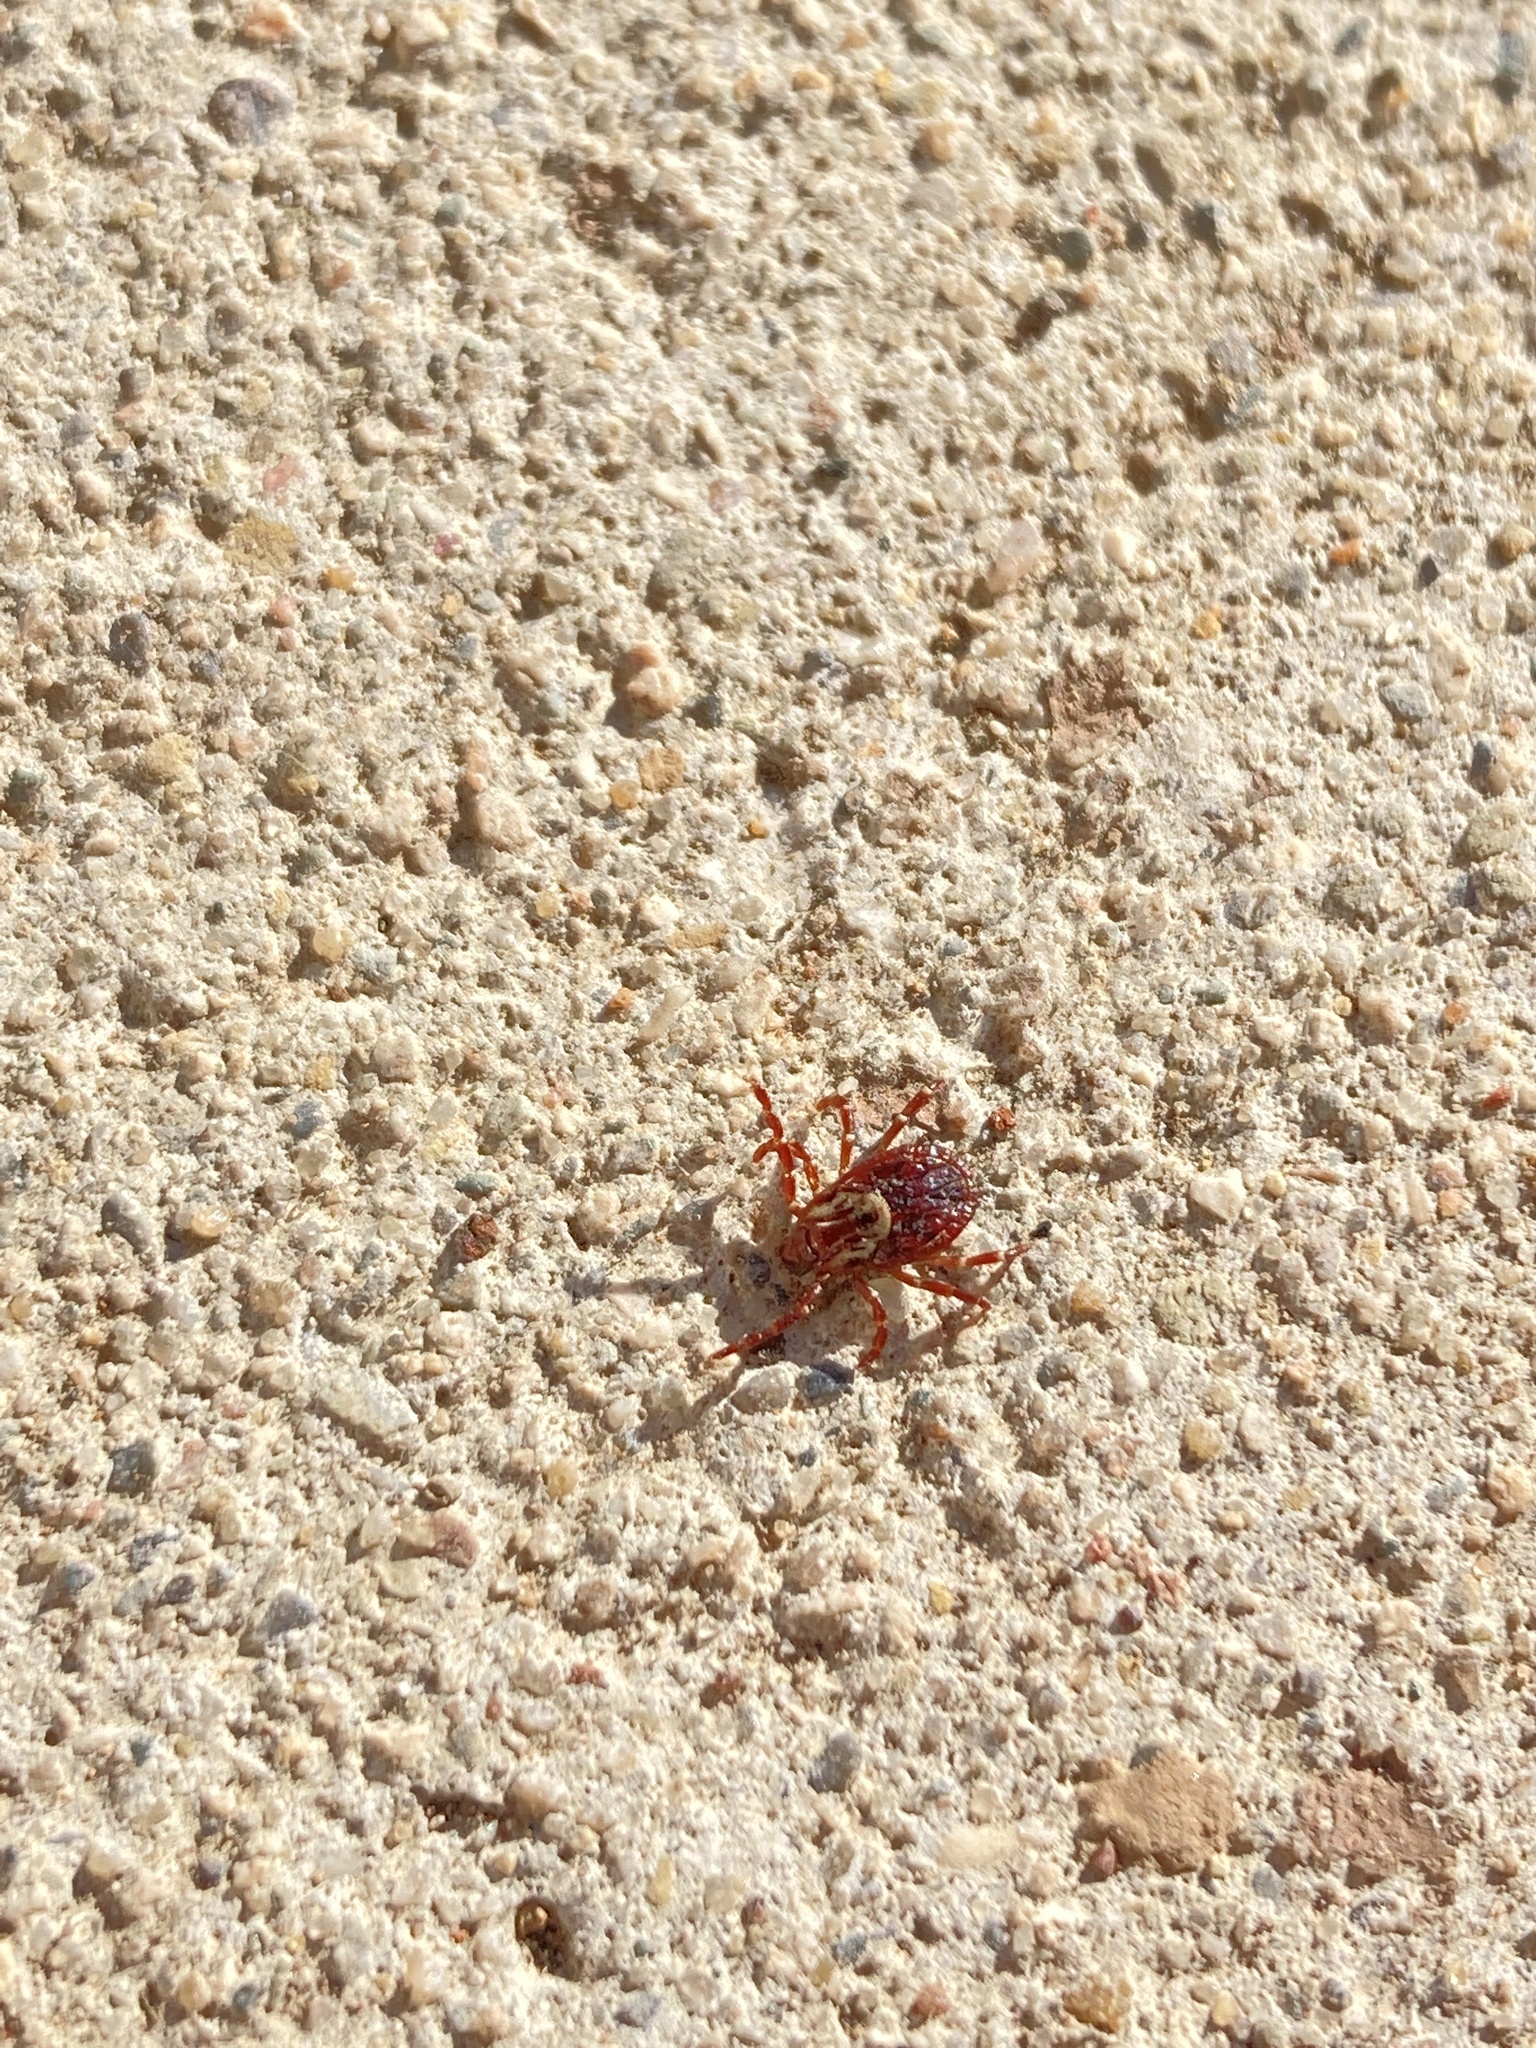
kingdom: Animalia
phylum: Arthropoda
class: Arachnida
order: Ixodida
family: Ixodidae
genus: Dermacentor
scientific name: Dermacentor variabilis
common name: American dog tick
